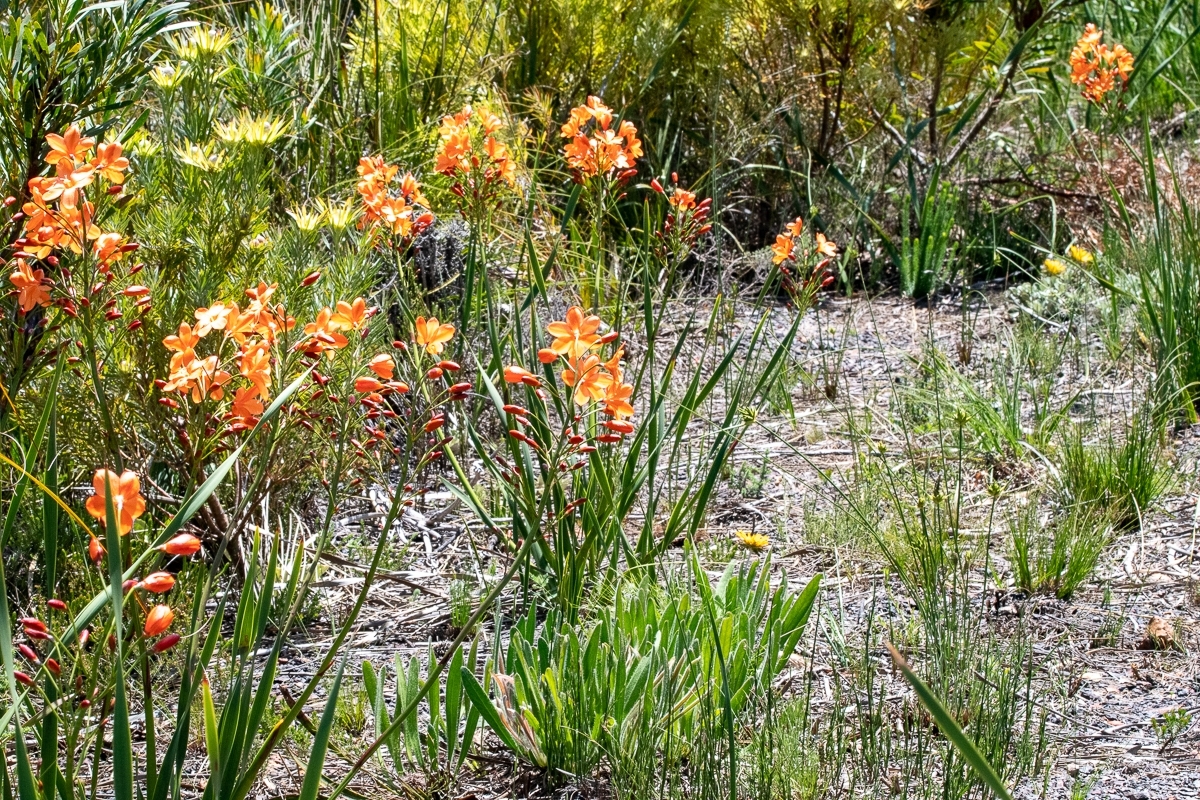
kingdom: Plantae
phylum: Tracheophyta
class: Liliopsida
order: Asparagales
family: Iridaceae
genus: Pillansia
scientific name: Pillansia templemannii
